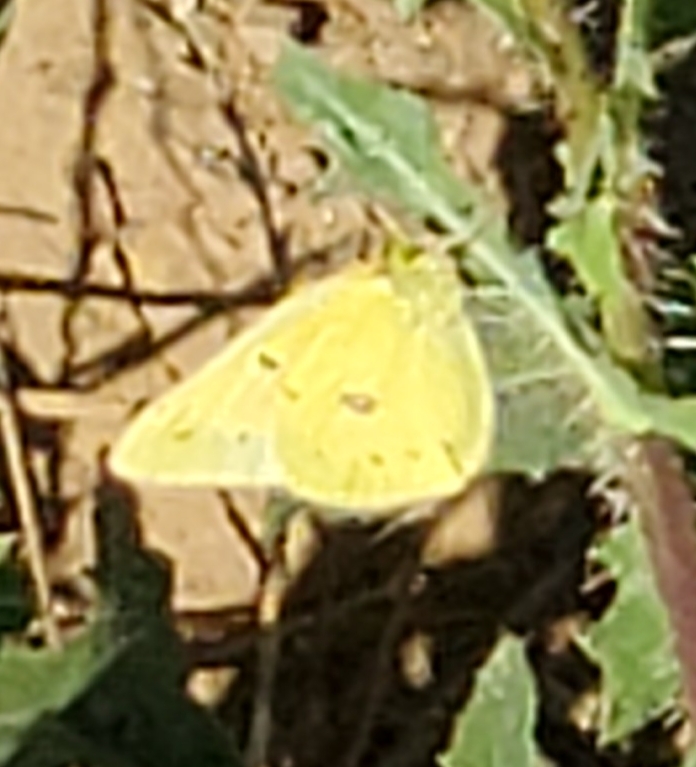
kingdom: Animalia
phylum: Arthropoda
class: Insecta
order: Lepidoptera
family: Pieridae
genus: Colias
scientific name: Colias eurytheme
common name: Alfalfa butterfly
